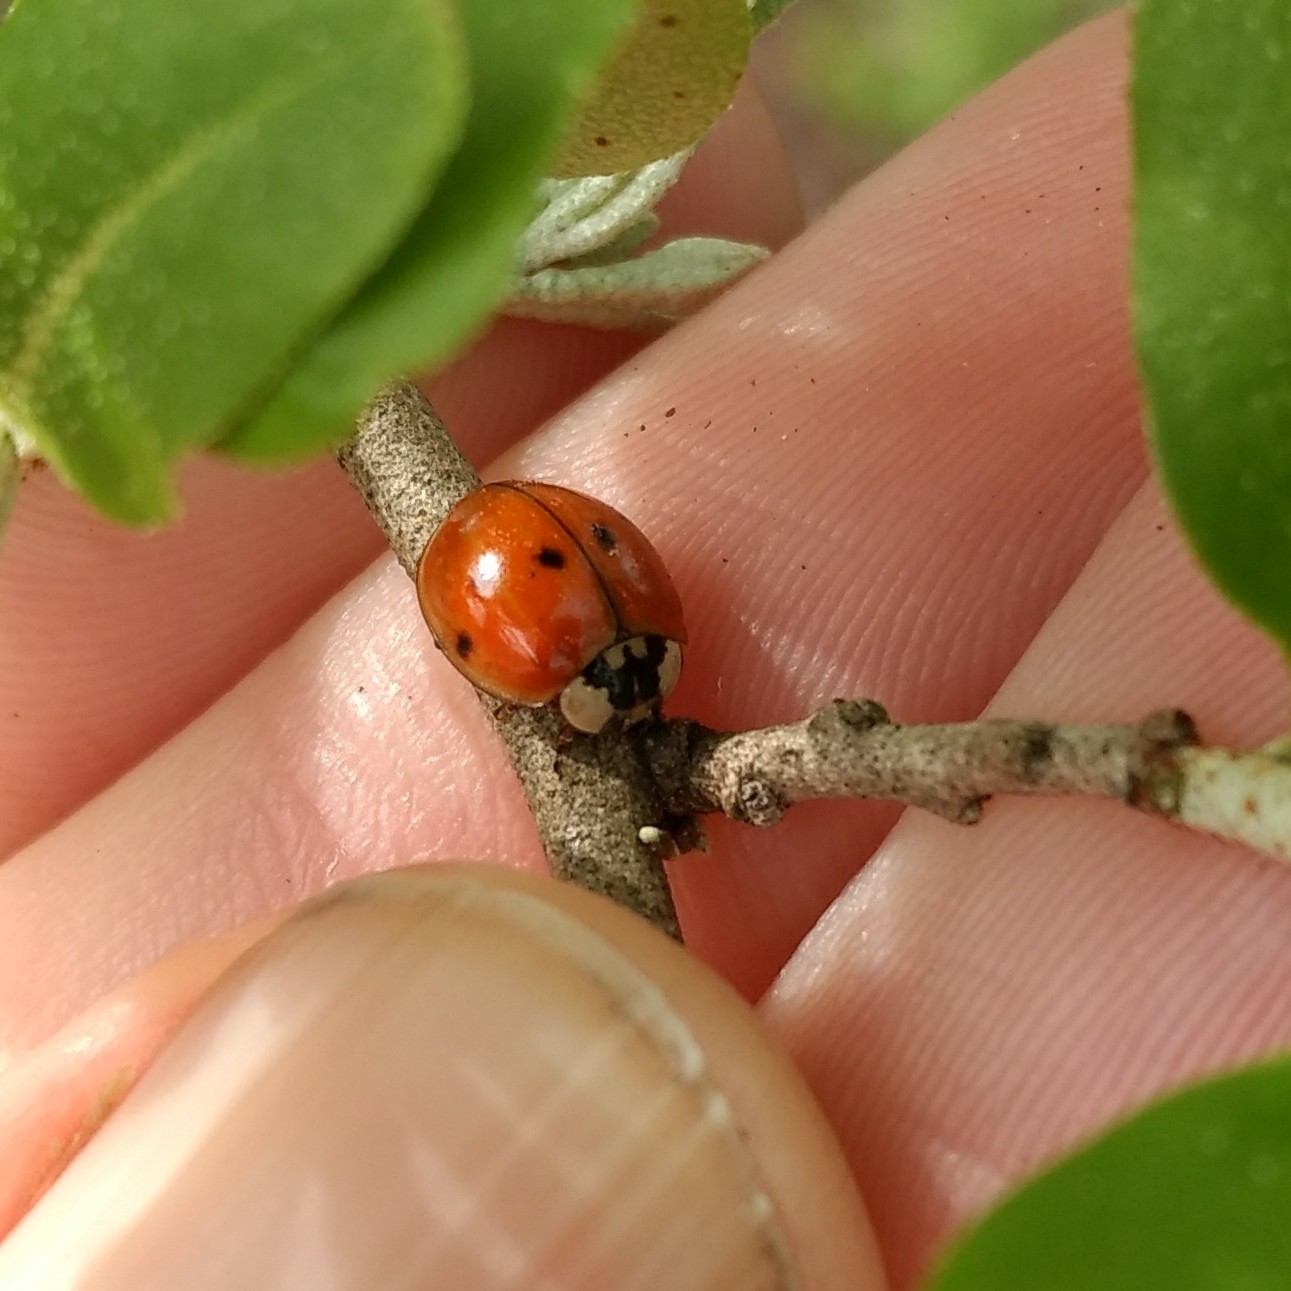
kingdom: Animalia
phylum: Arthropoda
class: Insecta
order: Coleoptera
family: Coccinellidae
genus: Harmonia
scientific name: Harmonia axyridis
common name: Harlequin ladybird
